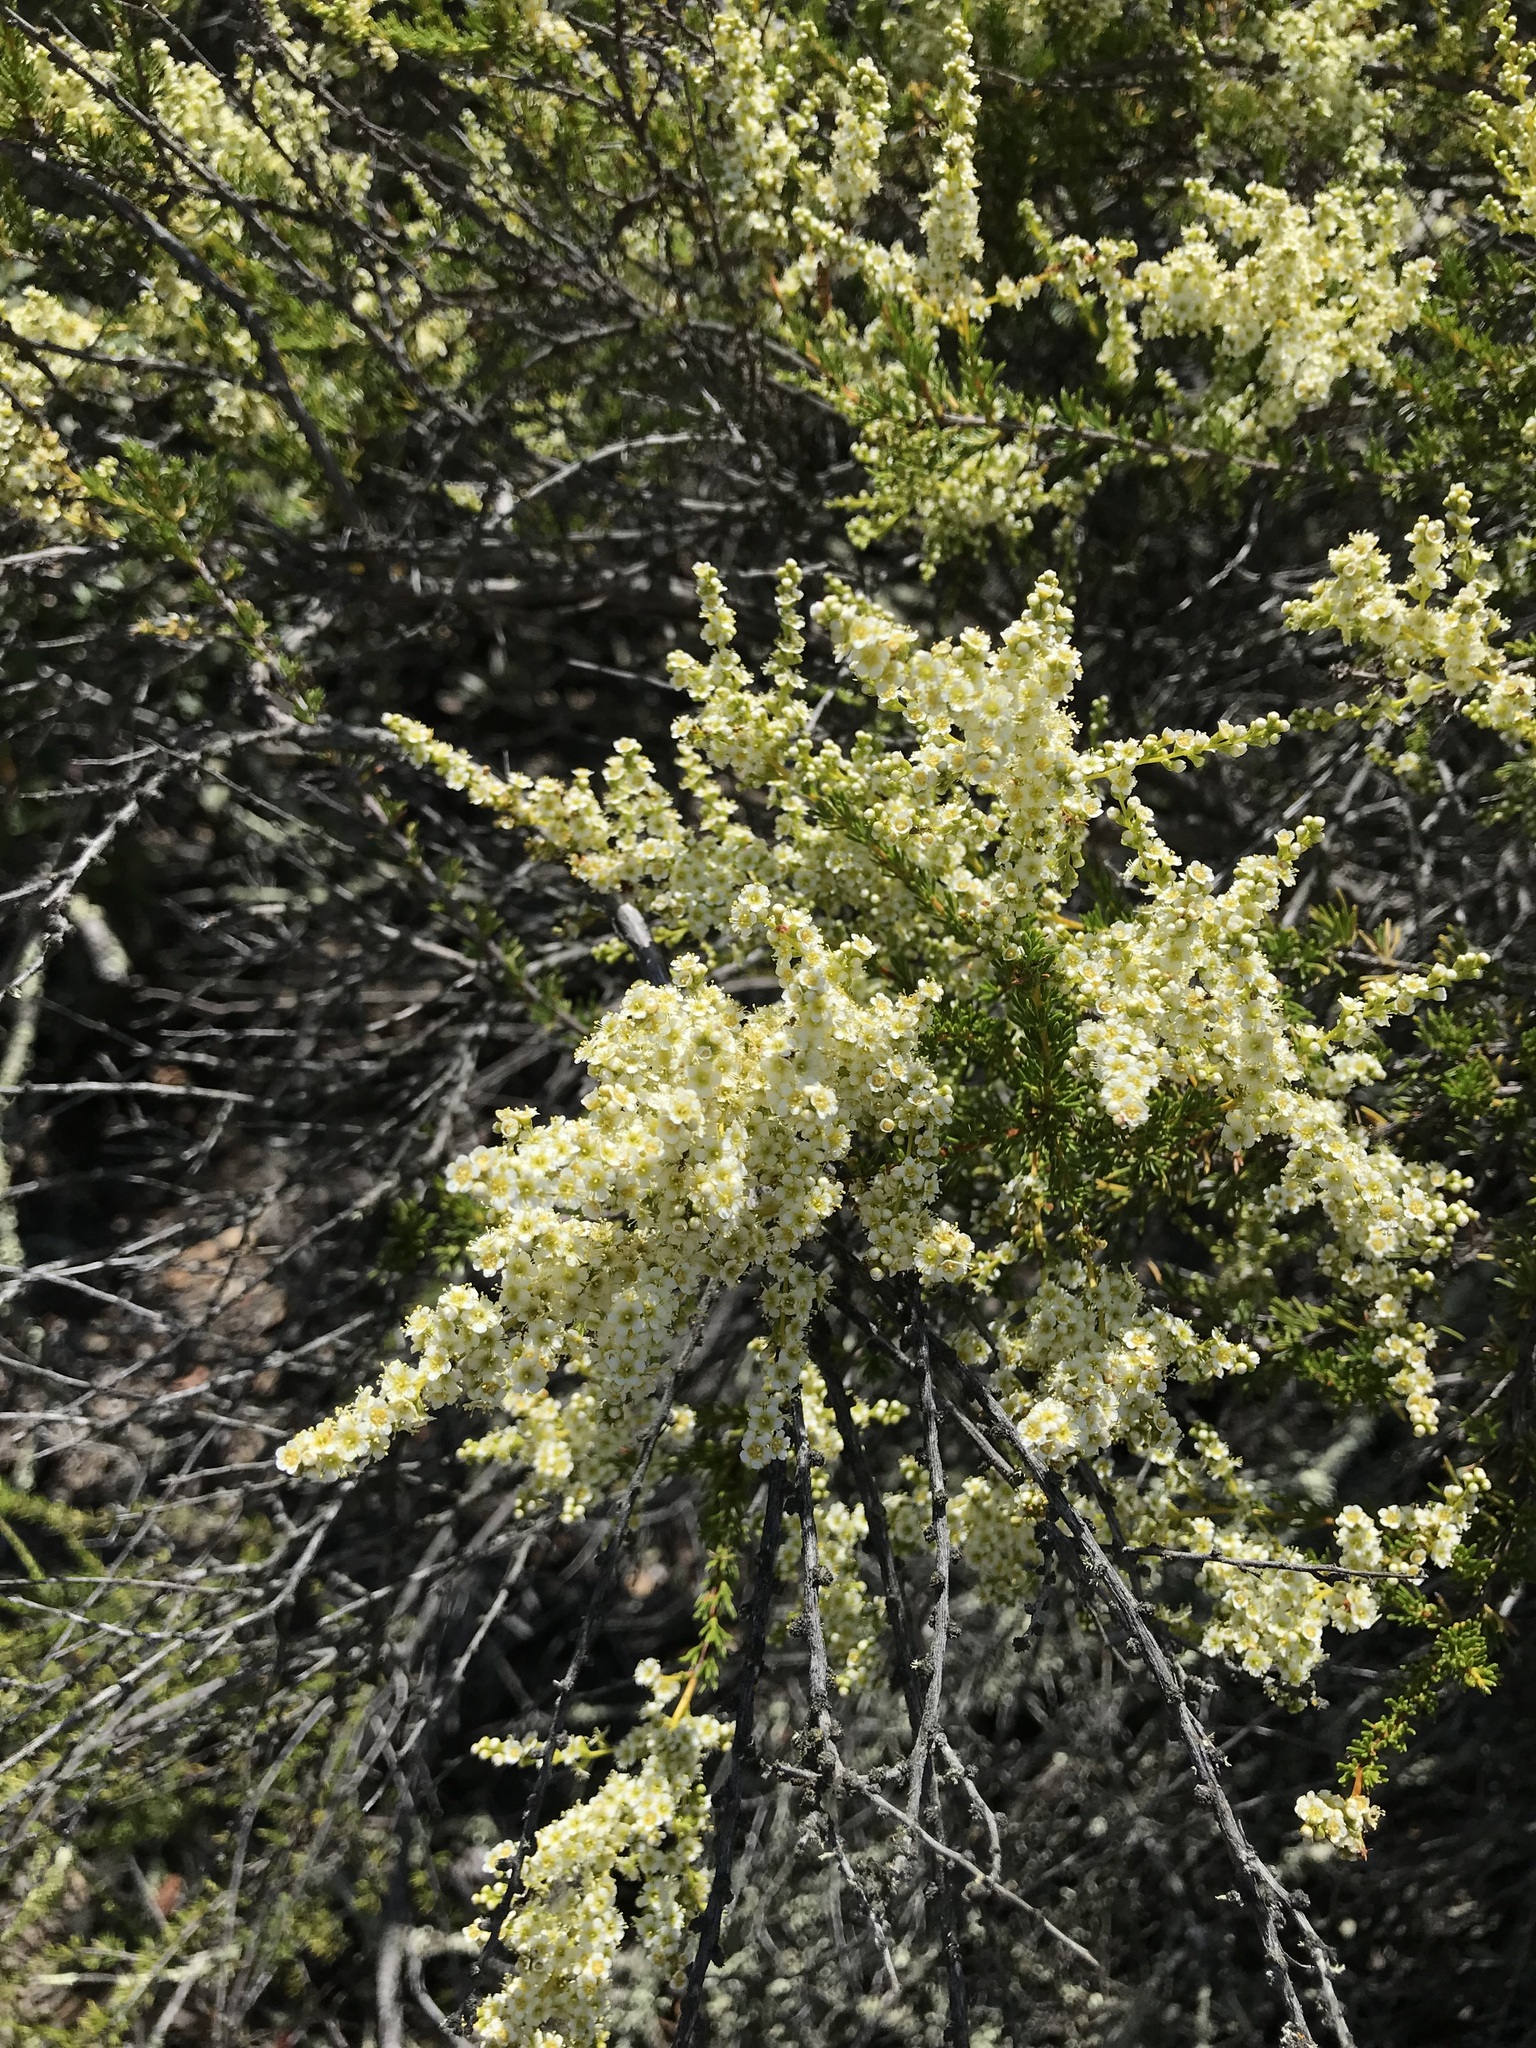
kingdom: Plantae
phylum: Tracheophyta
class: Magnoliopsida
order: Rosales
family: Rosaceae
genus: Adenostoma
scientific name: Adenostoma fasciculatum
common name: Chamise
